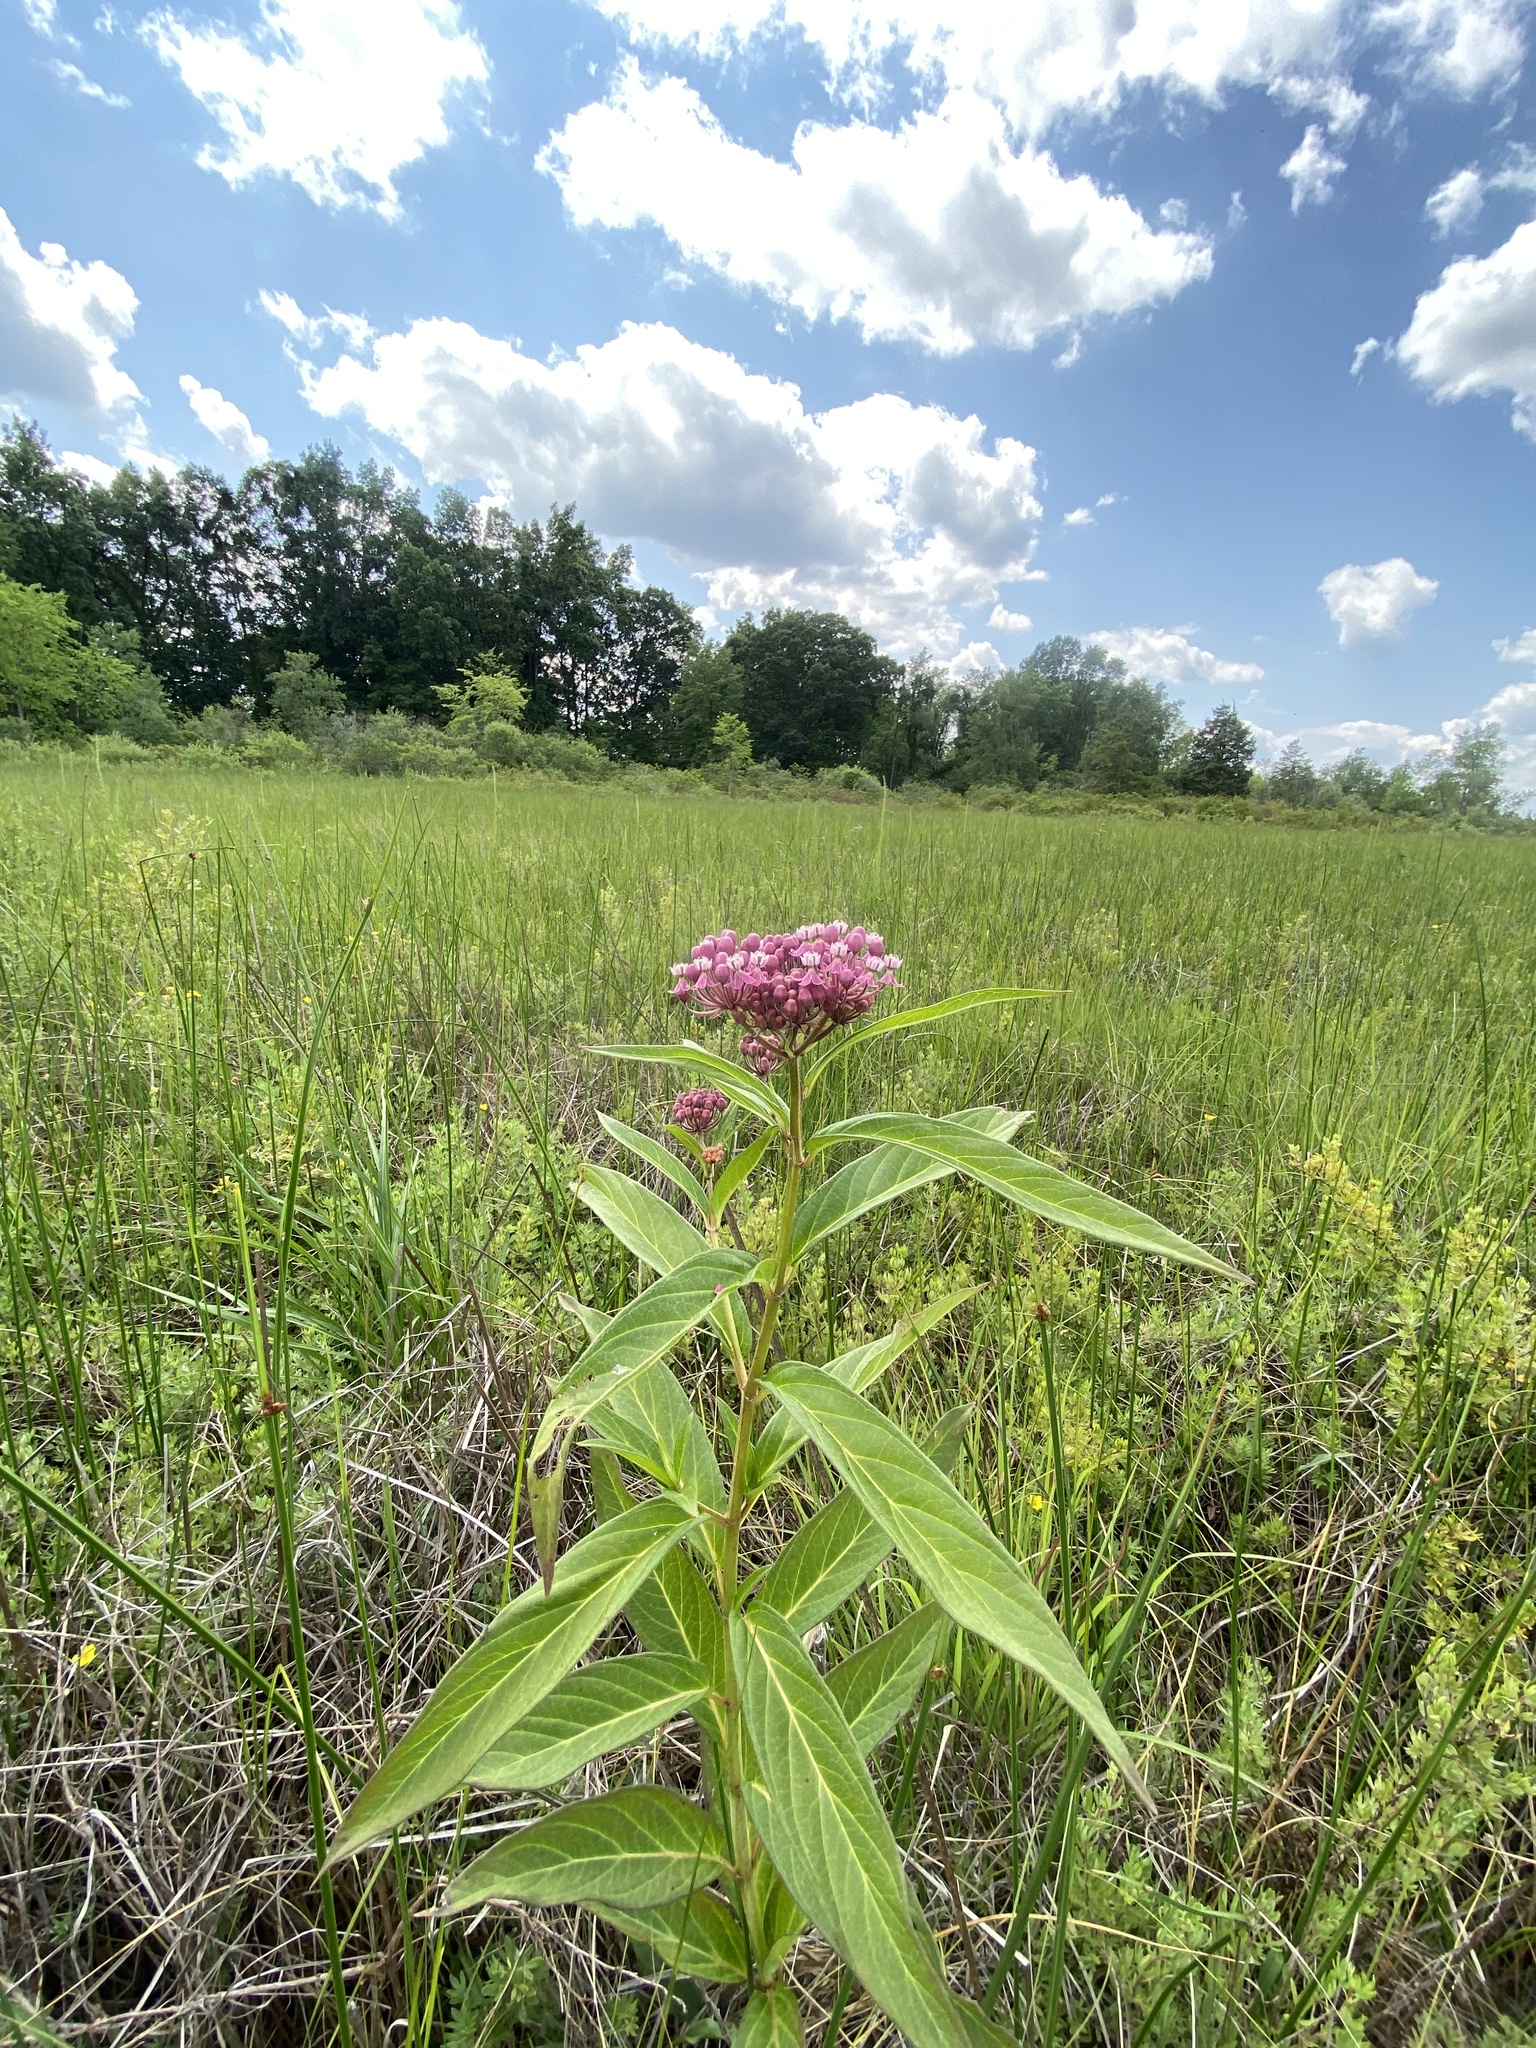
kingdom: Plantae
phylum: Tracheophyta
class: Magnoliopsida
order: Gentianales
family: Apocynaceae
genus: Asclepias
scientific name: Asclepias incarnata
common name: Swamp milkweed
